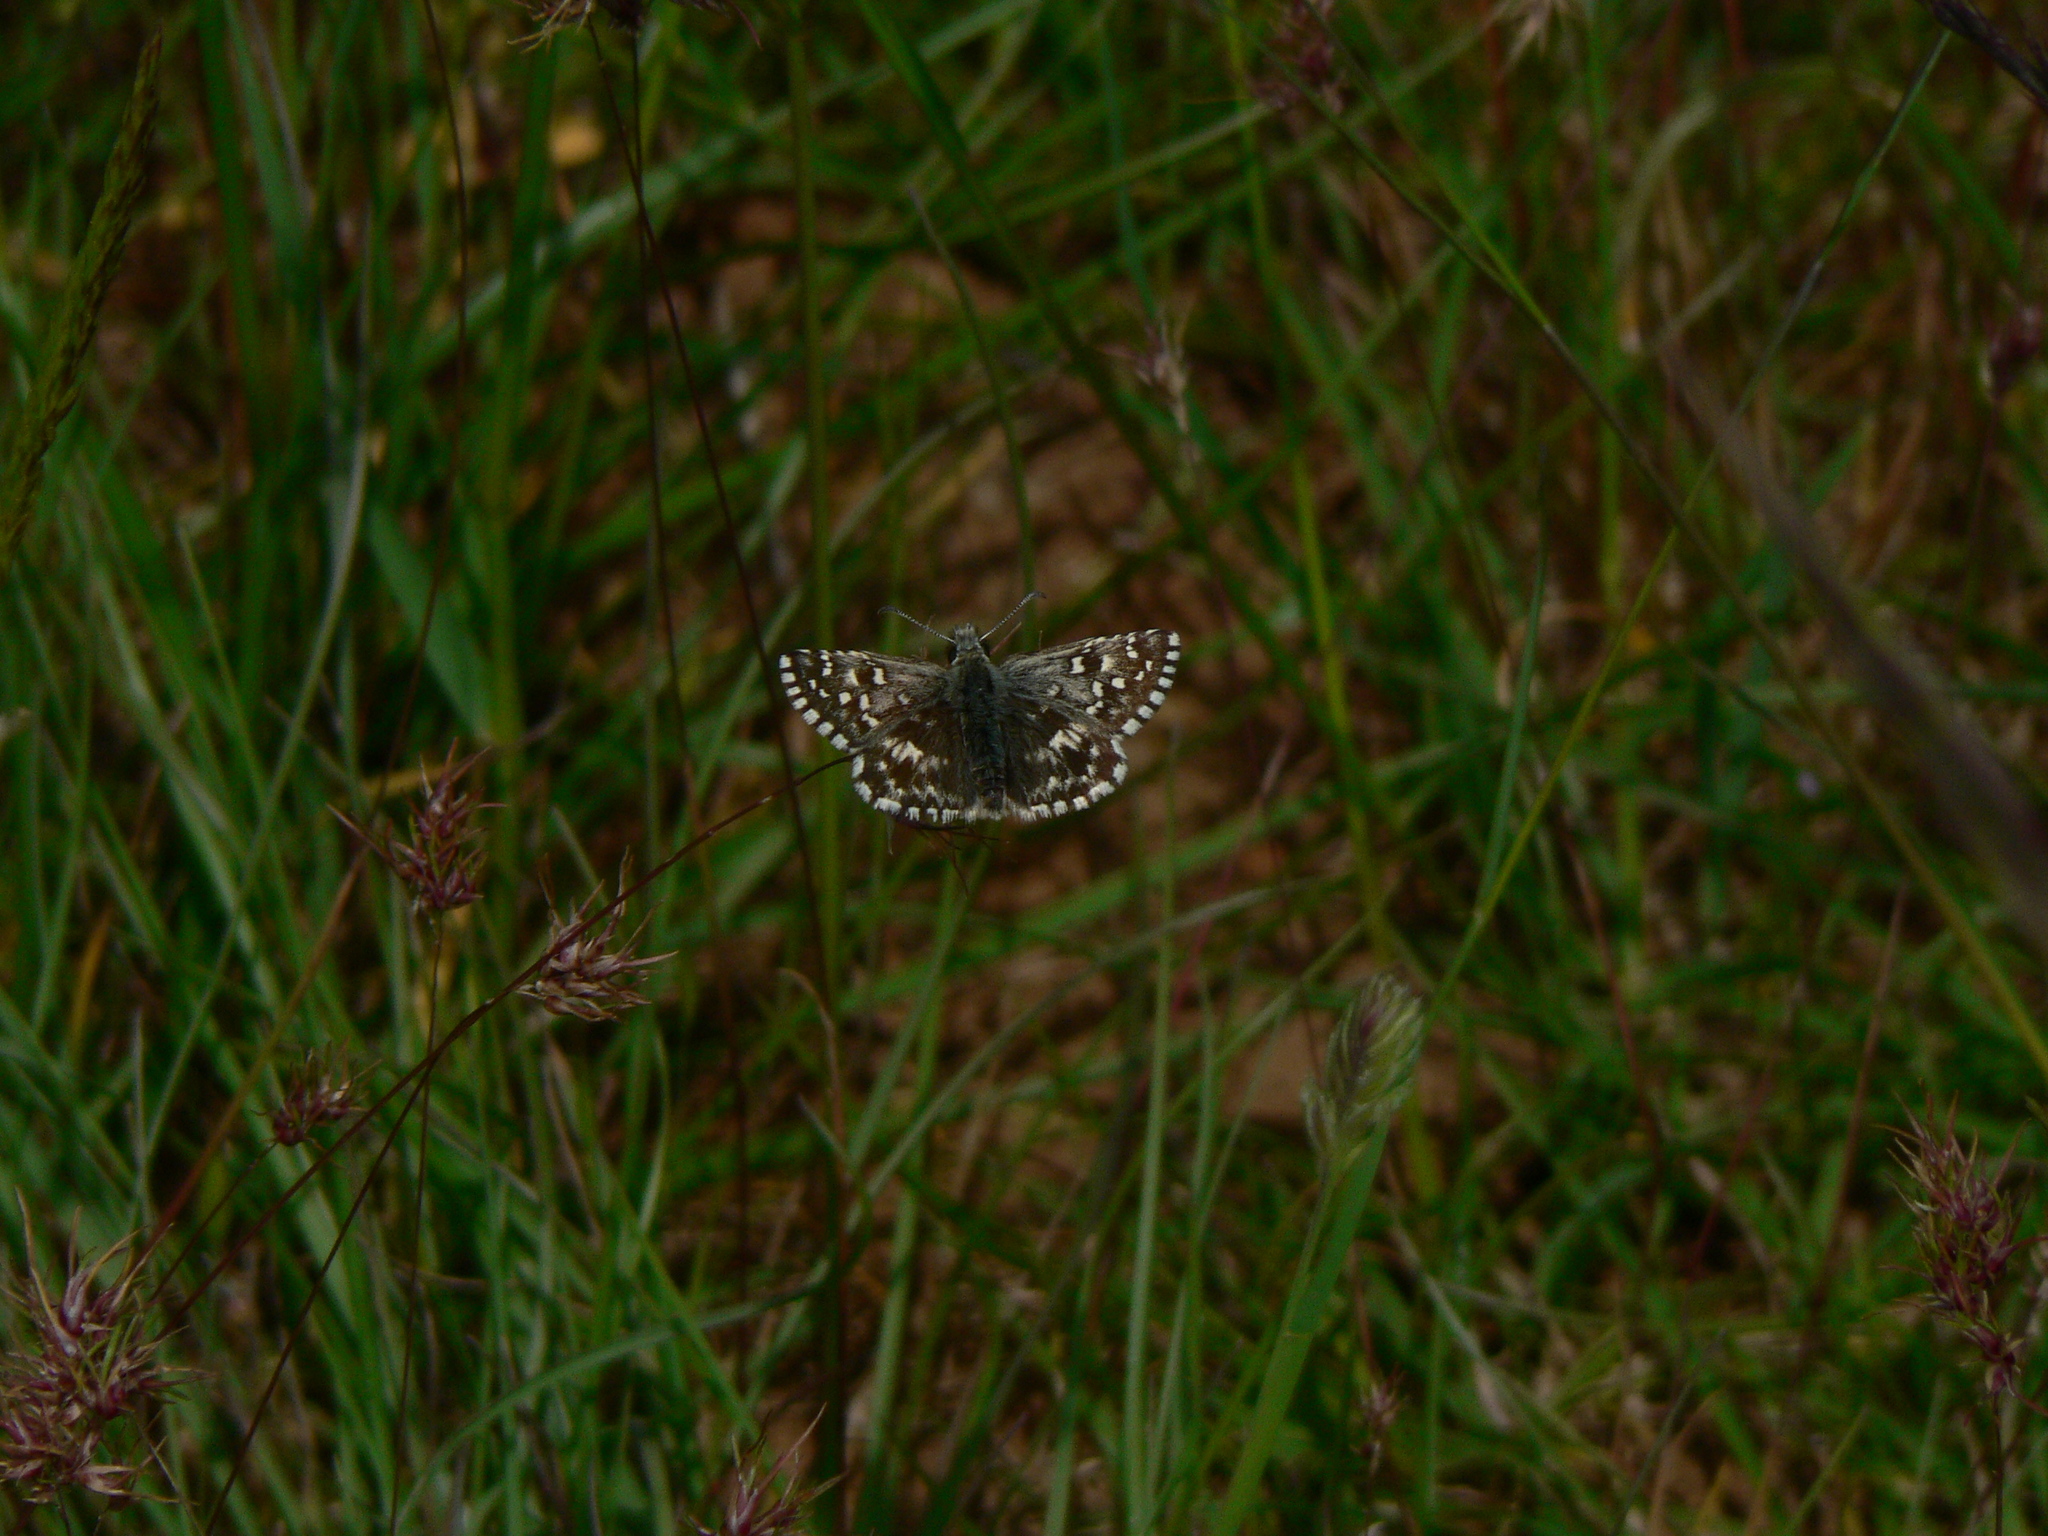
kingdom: Animalia
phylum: Arthropoda
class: Insecta
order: Lepidoptera
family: Hesperiidae
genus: Pyrgus
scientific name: Pyrgus malvoides
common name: Southern grizzled skipper
